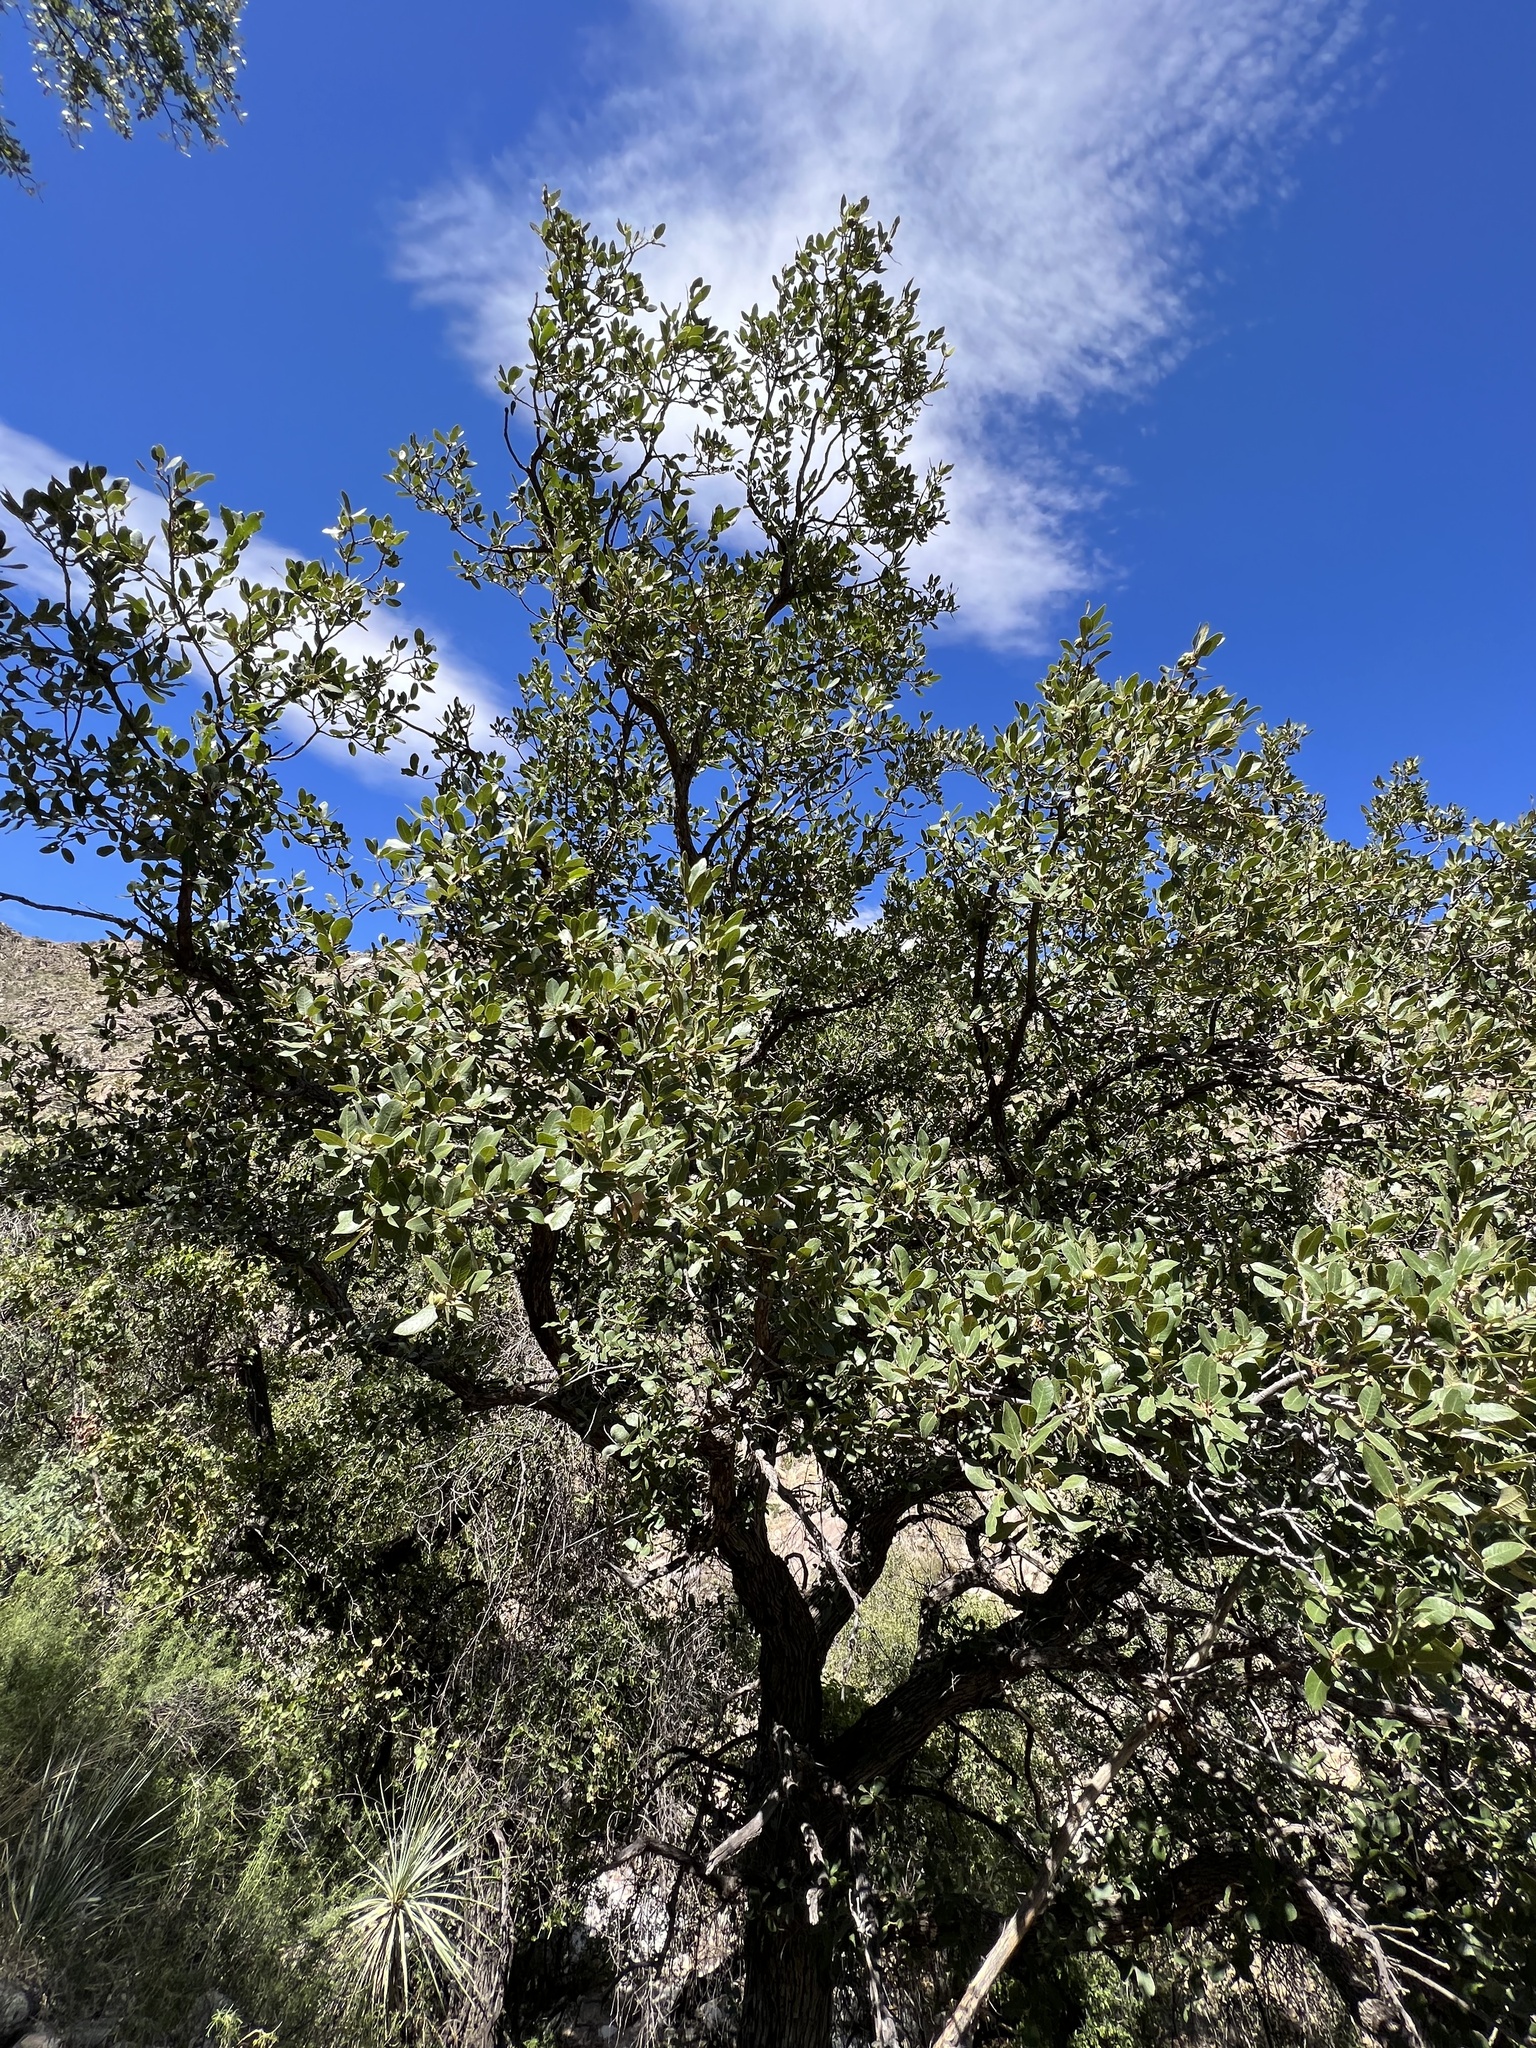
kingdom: Plantae
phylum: Tracheophyta
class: Magnoliopsida
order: Fagales
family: Fagaceae
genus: Quercus
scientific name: Quercus arizonica
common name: Arizona white oak
